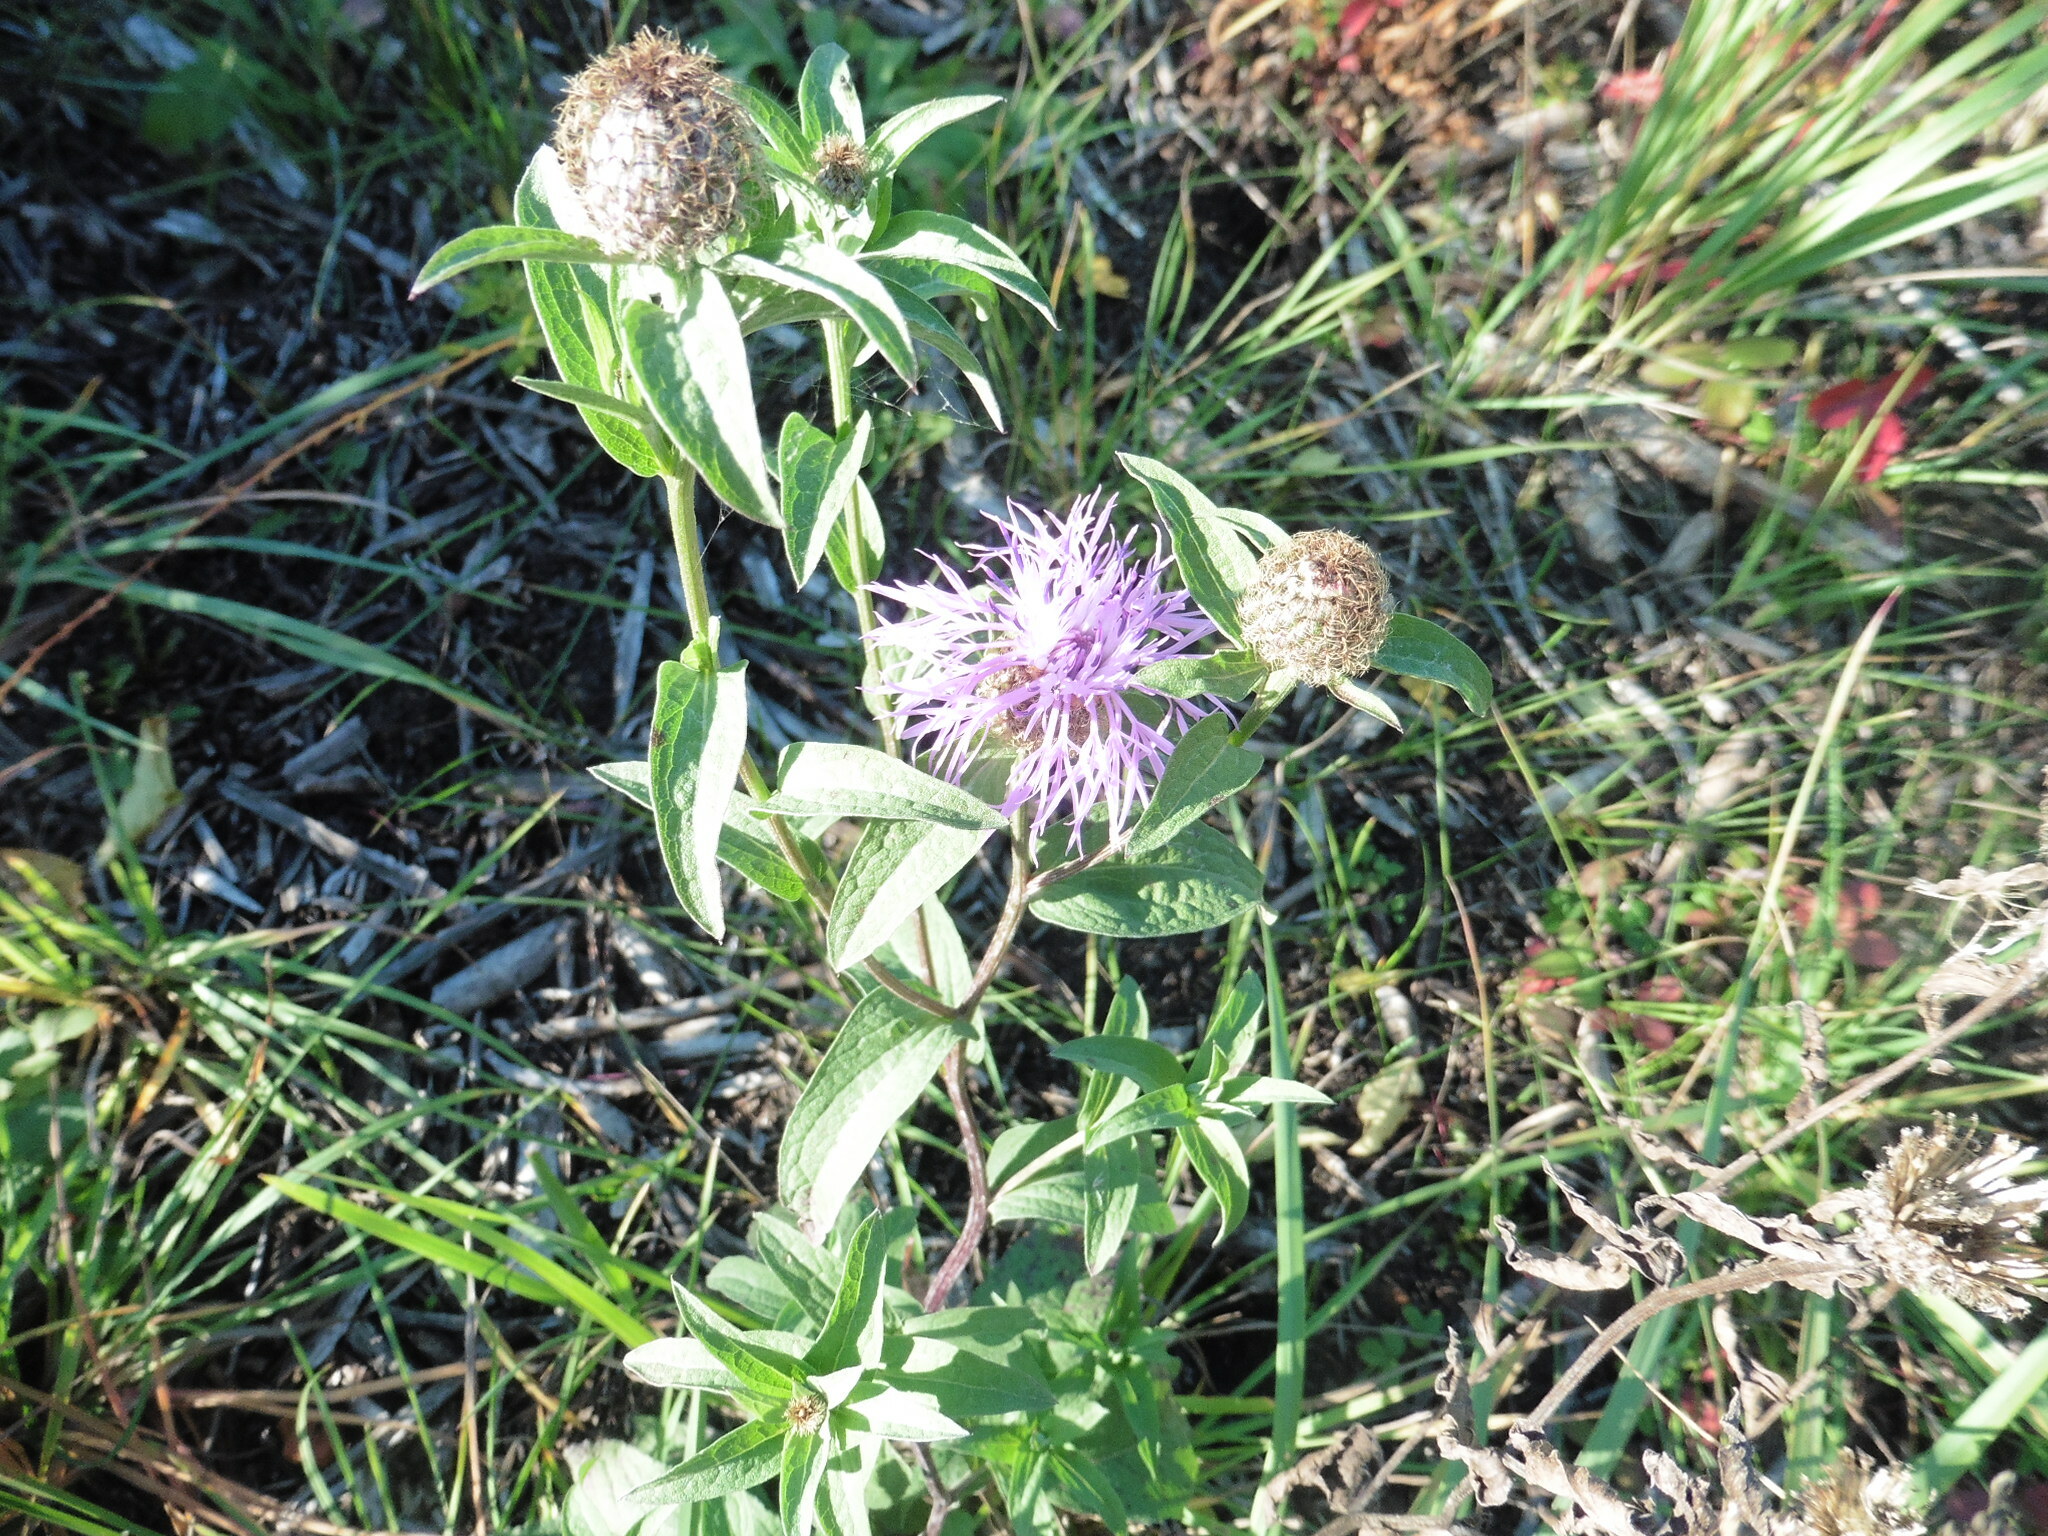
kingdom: Plantae
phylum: Tracheophyta
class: Magnoliopsida
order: Asterales
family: Asteraceae
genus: Centaurea
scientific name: Centaurea phrygia
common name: Wig knapweed
